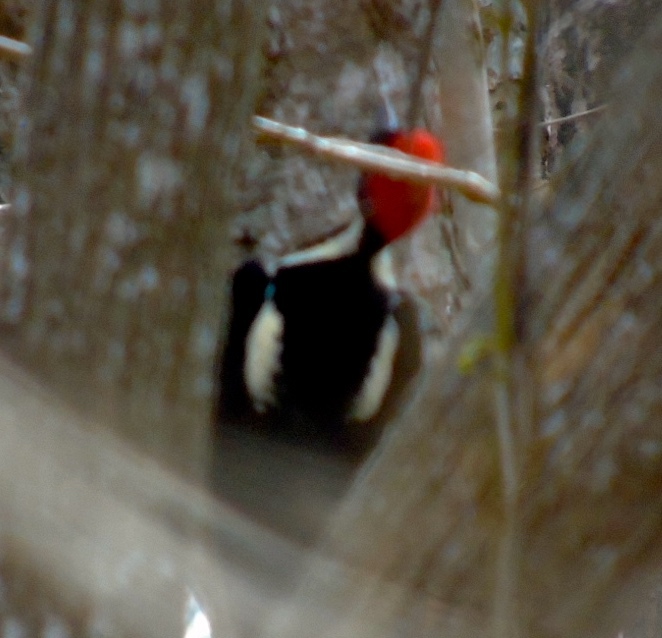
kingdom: Animalia
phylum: Chordata
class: Aves
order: Piciformes
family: Picidae
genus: Campephilus
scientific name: Campephilus guatemalensis
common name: Pale-billed woodpecker
